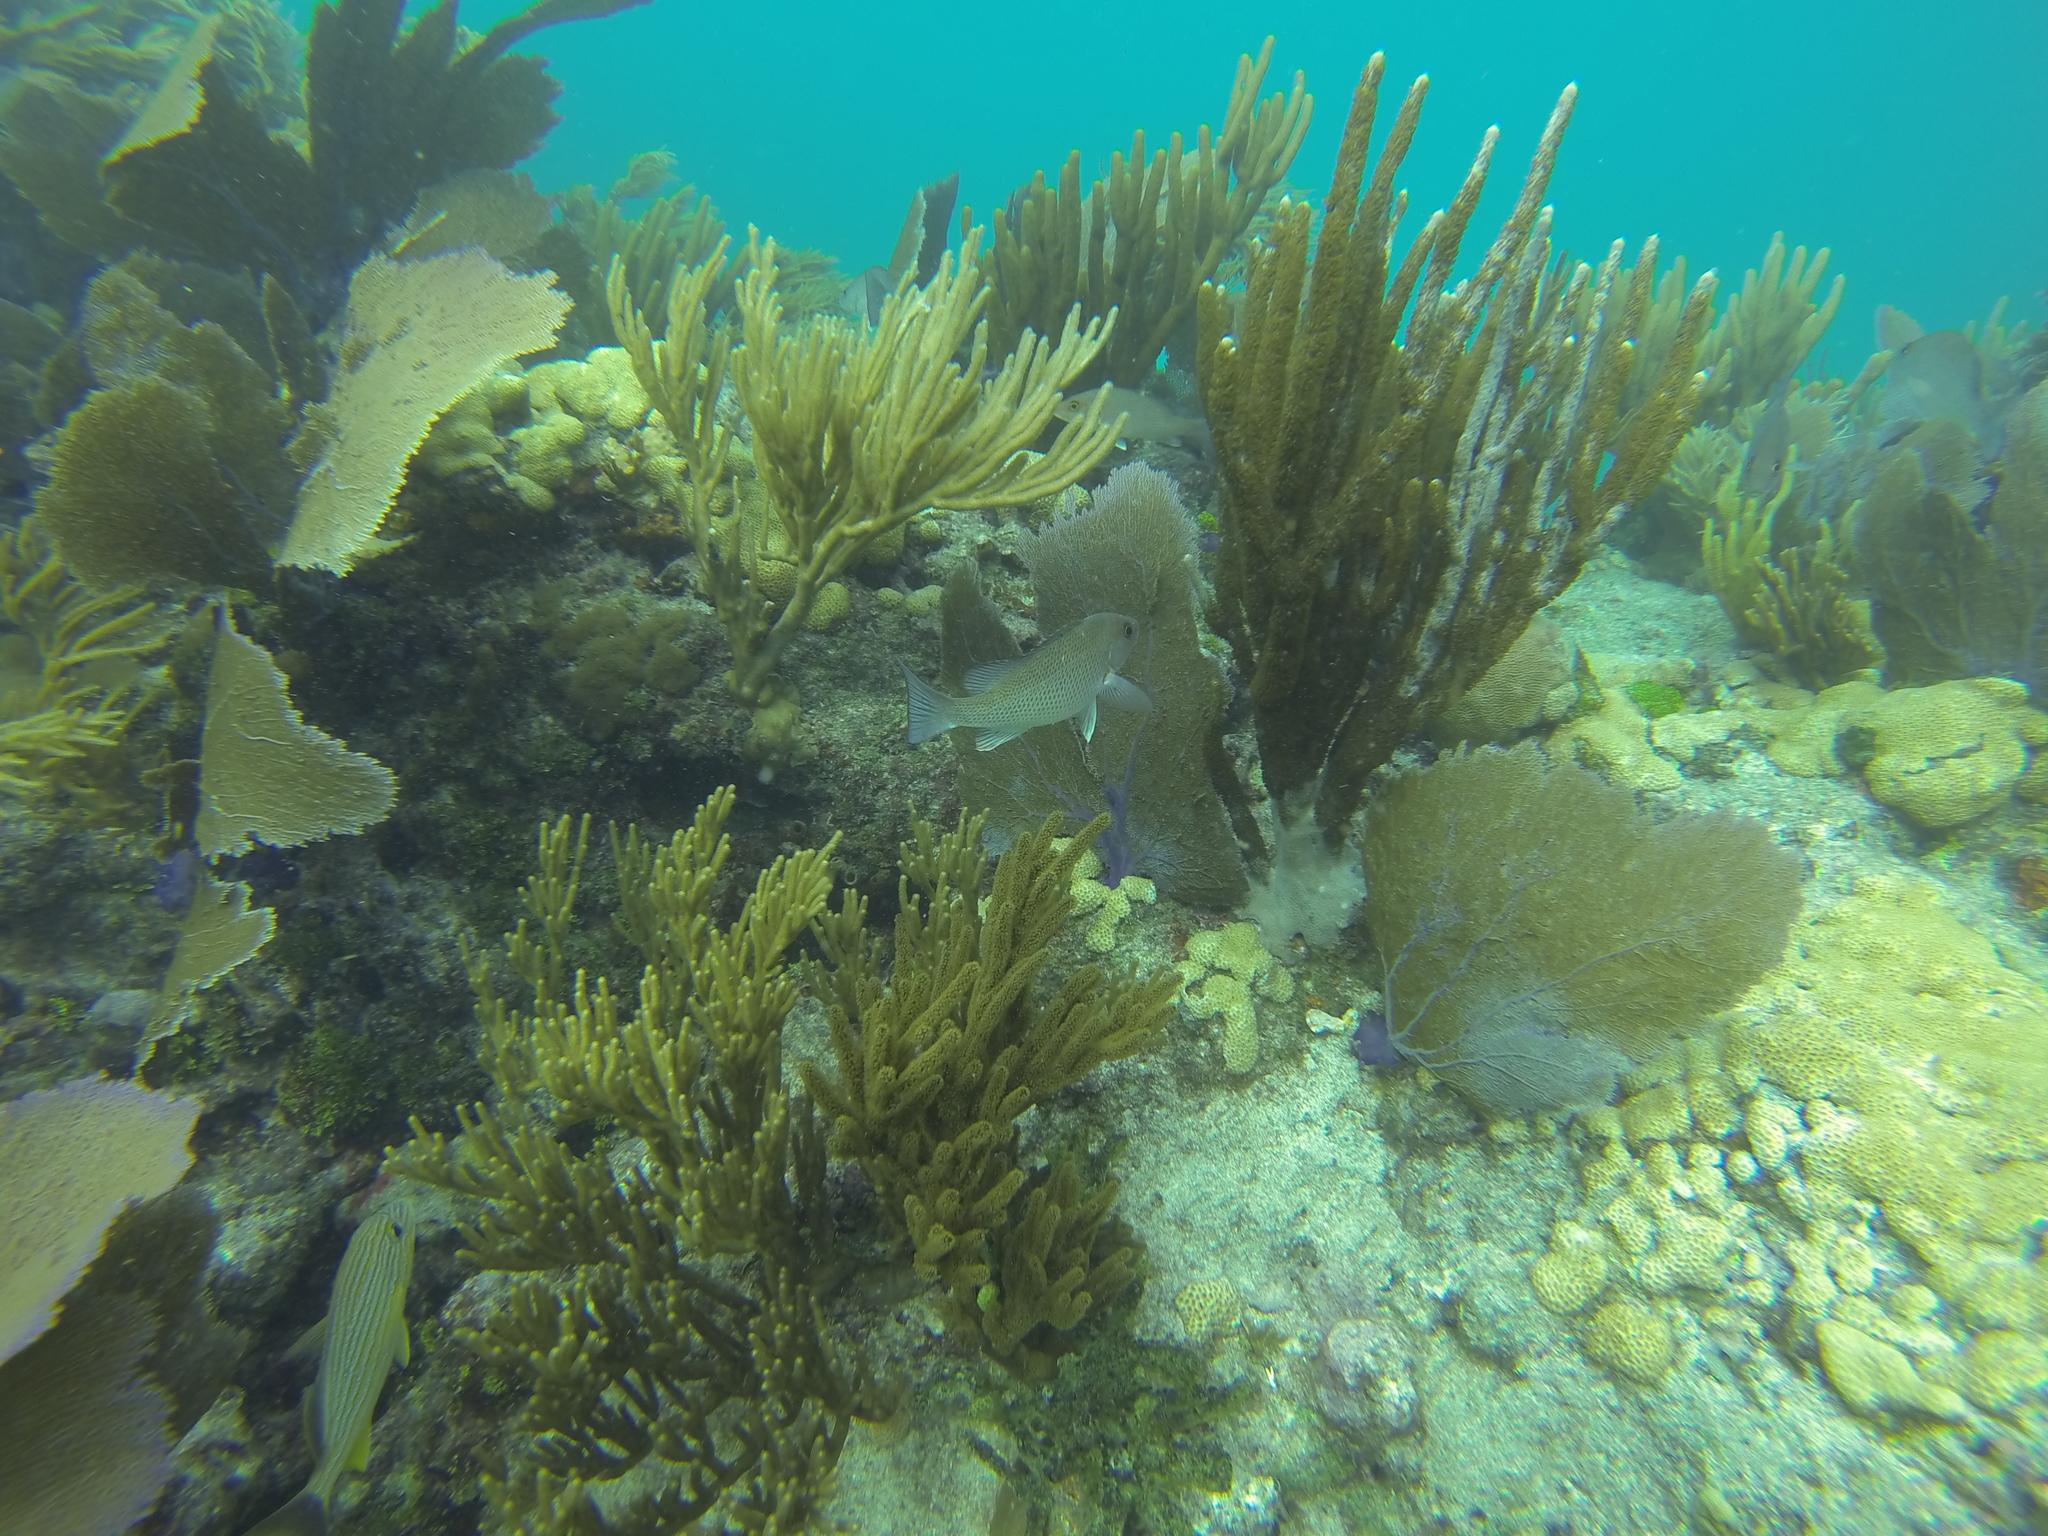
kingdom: Animalia
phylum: Chordata
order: Perciformes
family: Lutjanidae
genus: Lutjanus
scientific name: Lutjanus griseus
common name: Gray snapper
